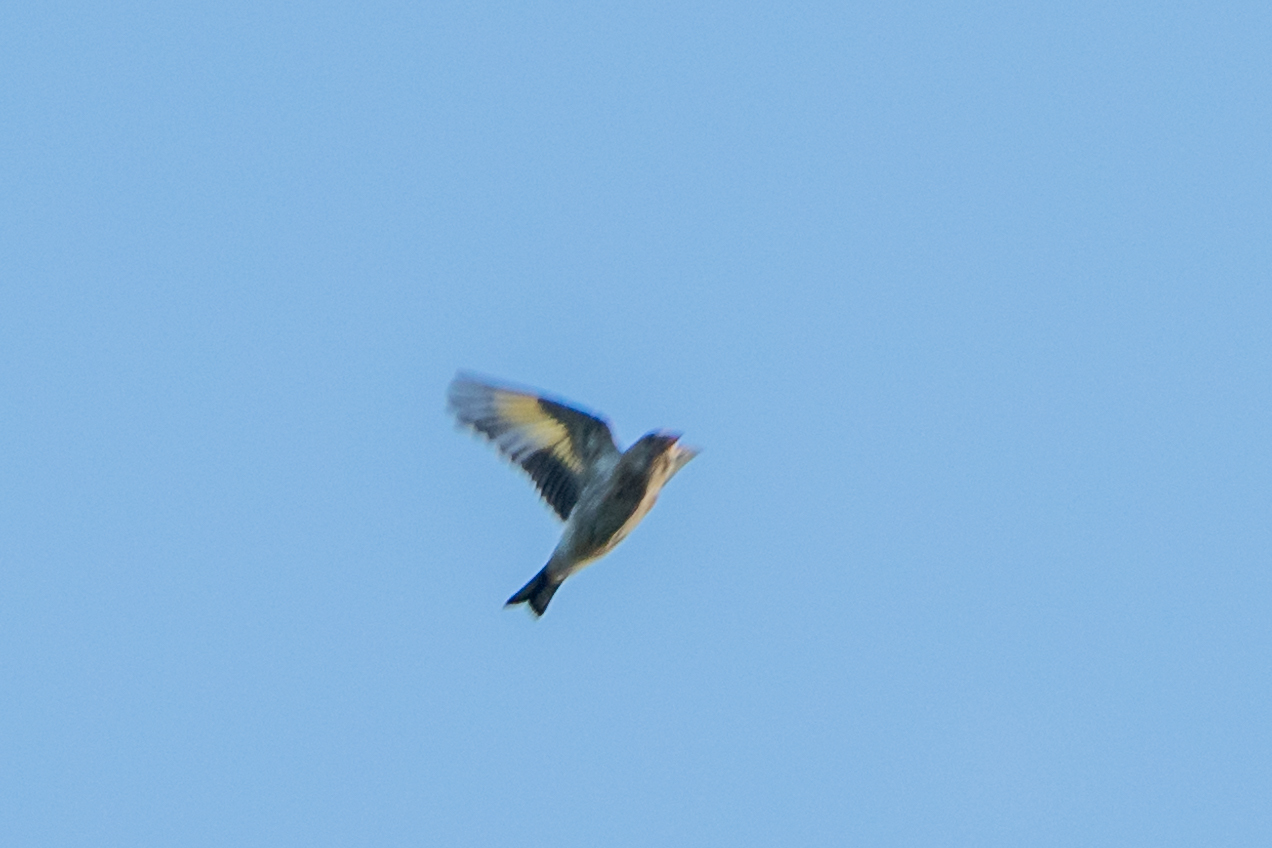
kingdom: Animalia
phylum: Chordata
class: Aves
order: Passeriformes
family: Fringillidae
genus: Carduelis
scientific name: Carduelis carduelis
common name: European goldfinch
